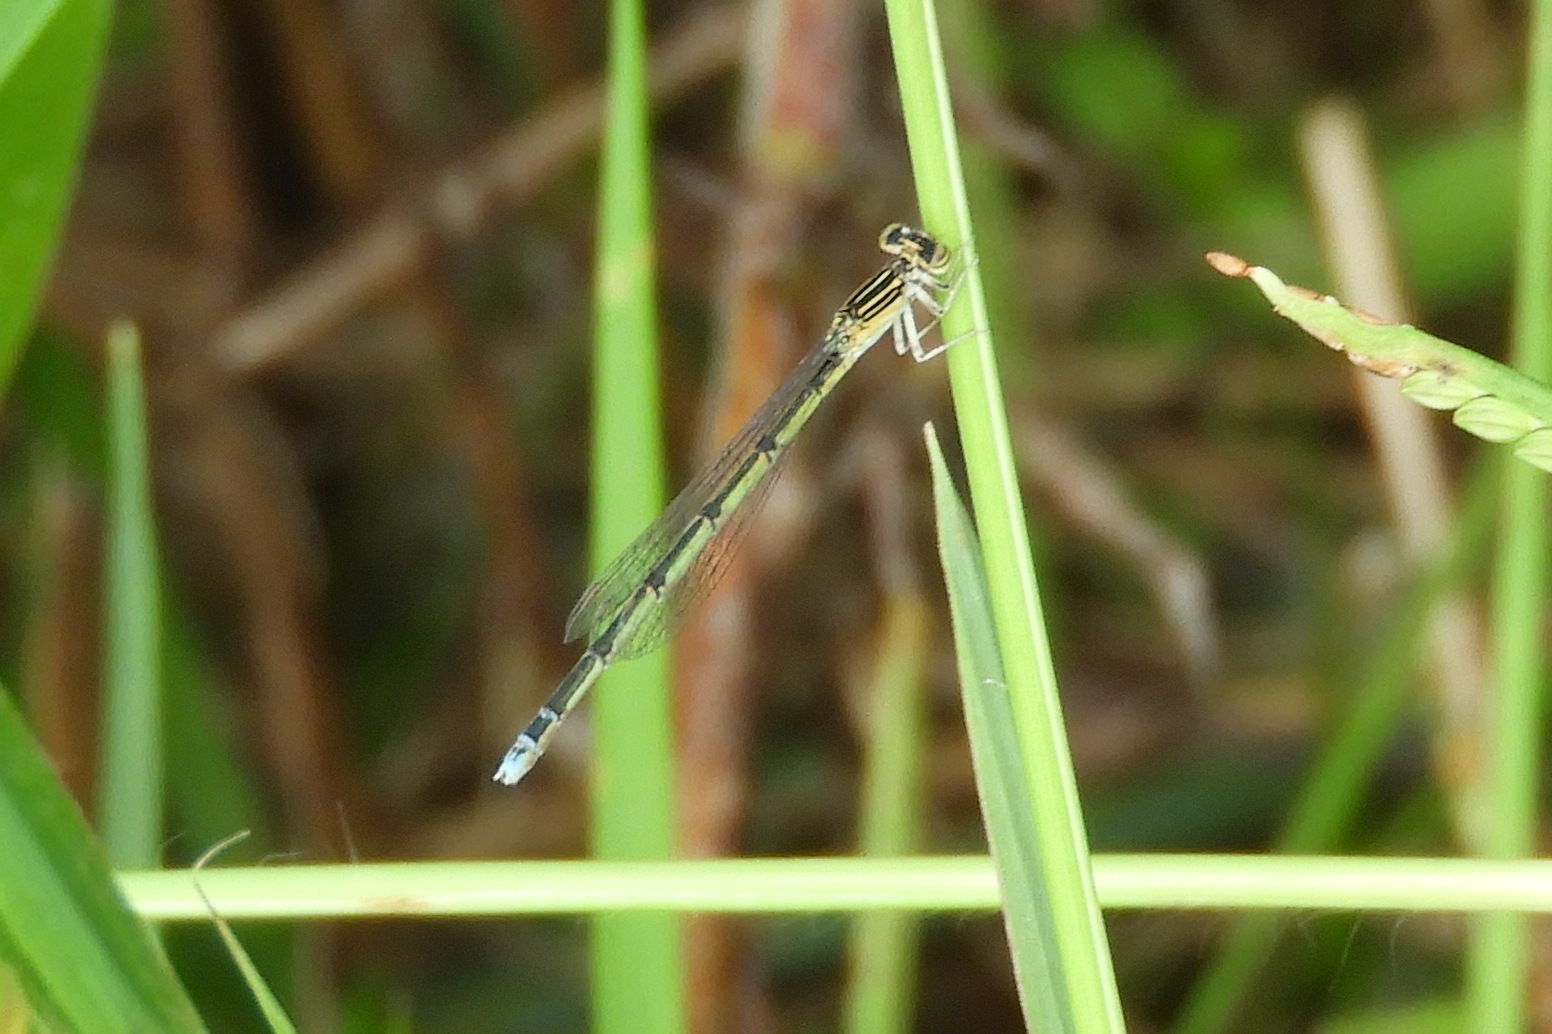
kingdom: Animalia
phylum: Arthropoda
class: Insecta
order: Odonata
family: Coenagrionidae
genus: Enallagma
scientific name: Enallagma basidens
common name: Double-striped bluet
